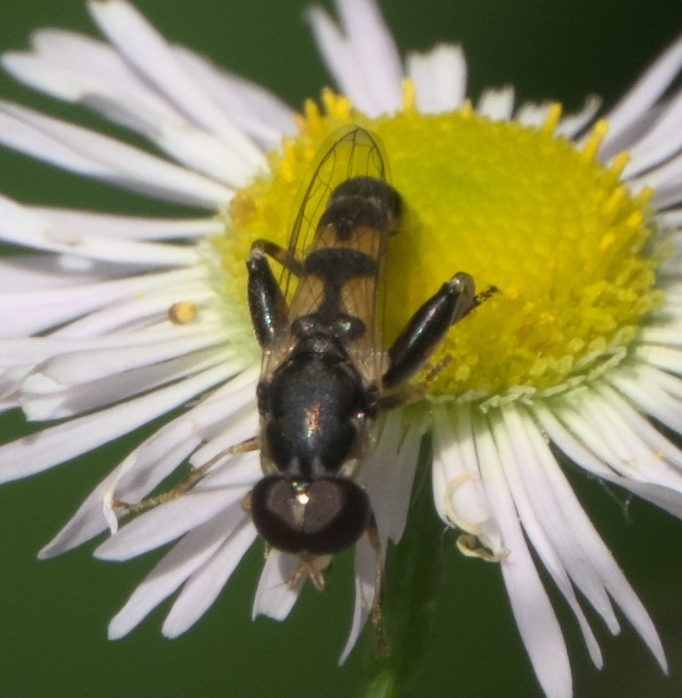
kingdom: Animalia
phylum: Arthropoda
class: Insecta
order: Diptera
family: Syrphidae
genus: Syritta
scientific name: Syritta pipiens
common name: Hover fly
